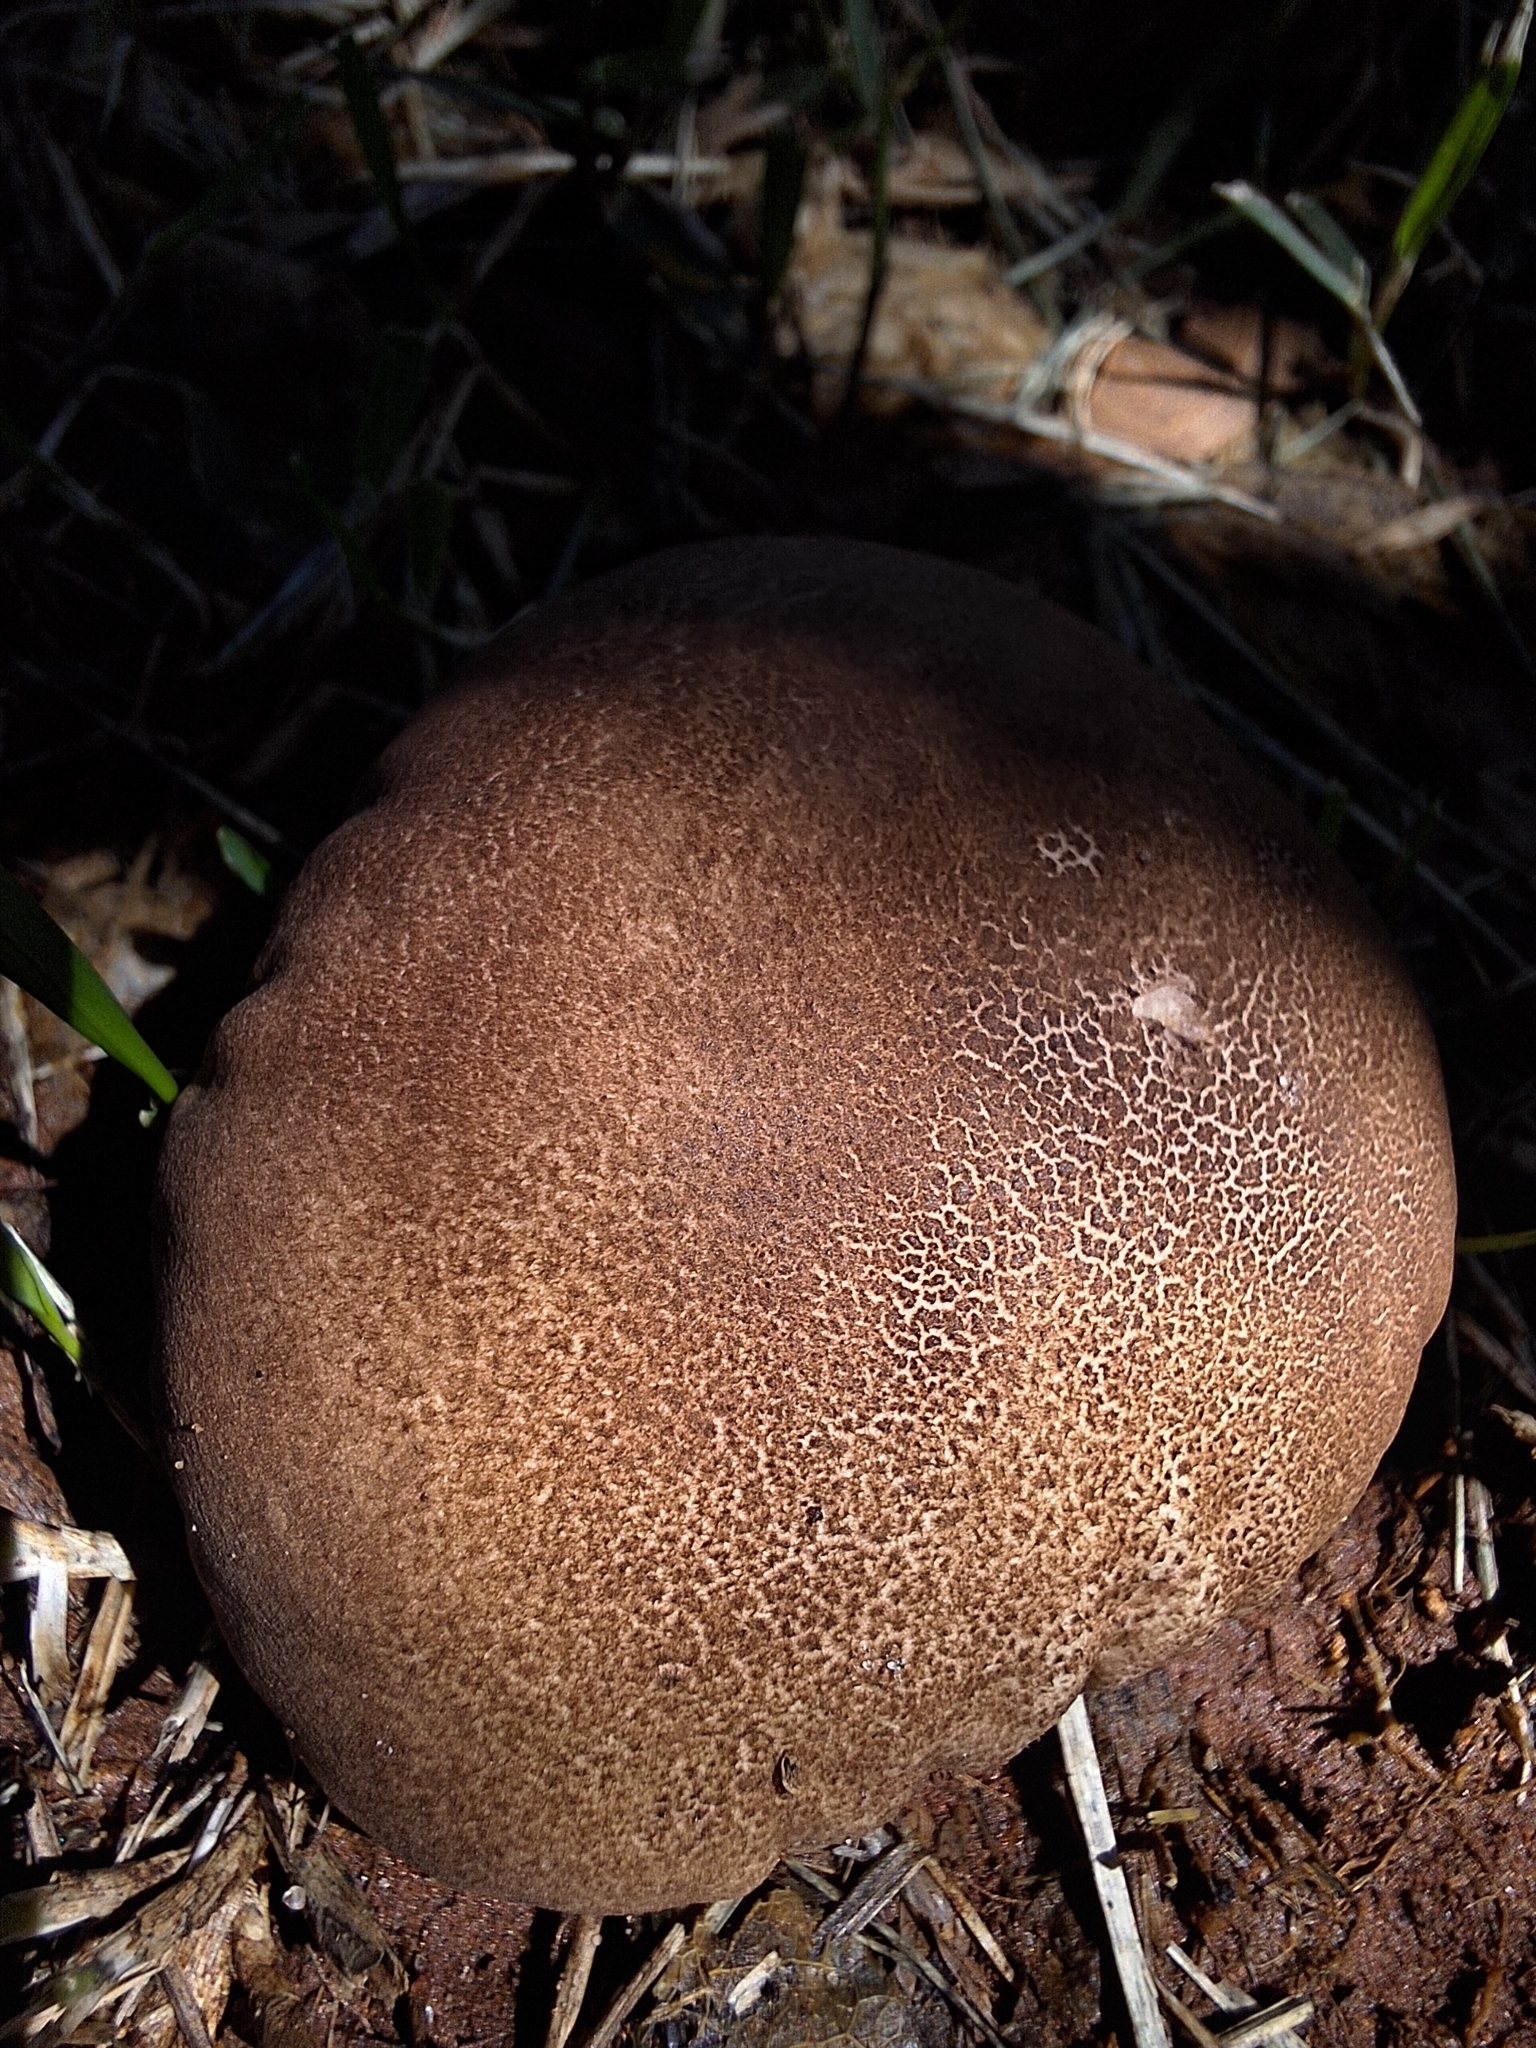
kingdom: Fungi
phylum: Basidiomycota
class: Agaricomycetes
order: Agaricales
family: Lycoperdaceae
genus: Calvatia
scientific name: Calvatia rugosa
